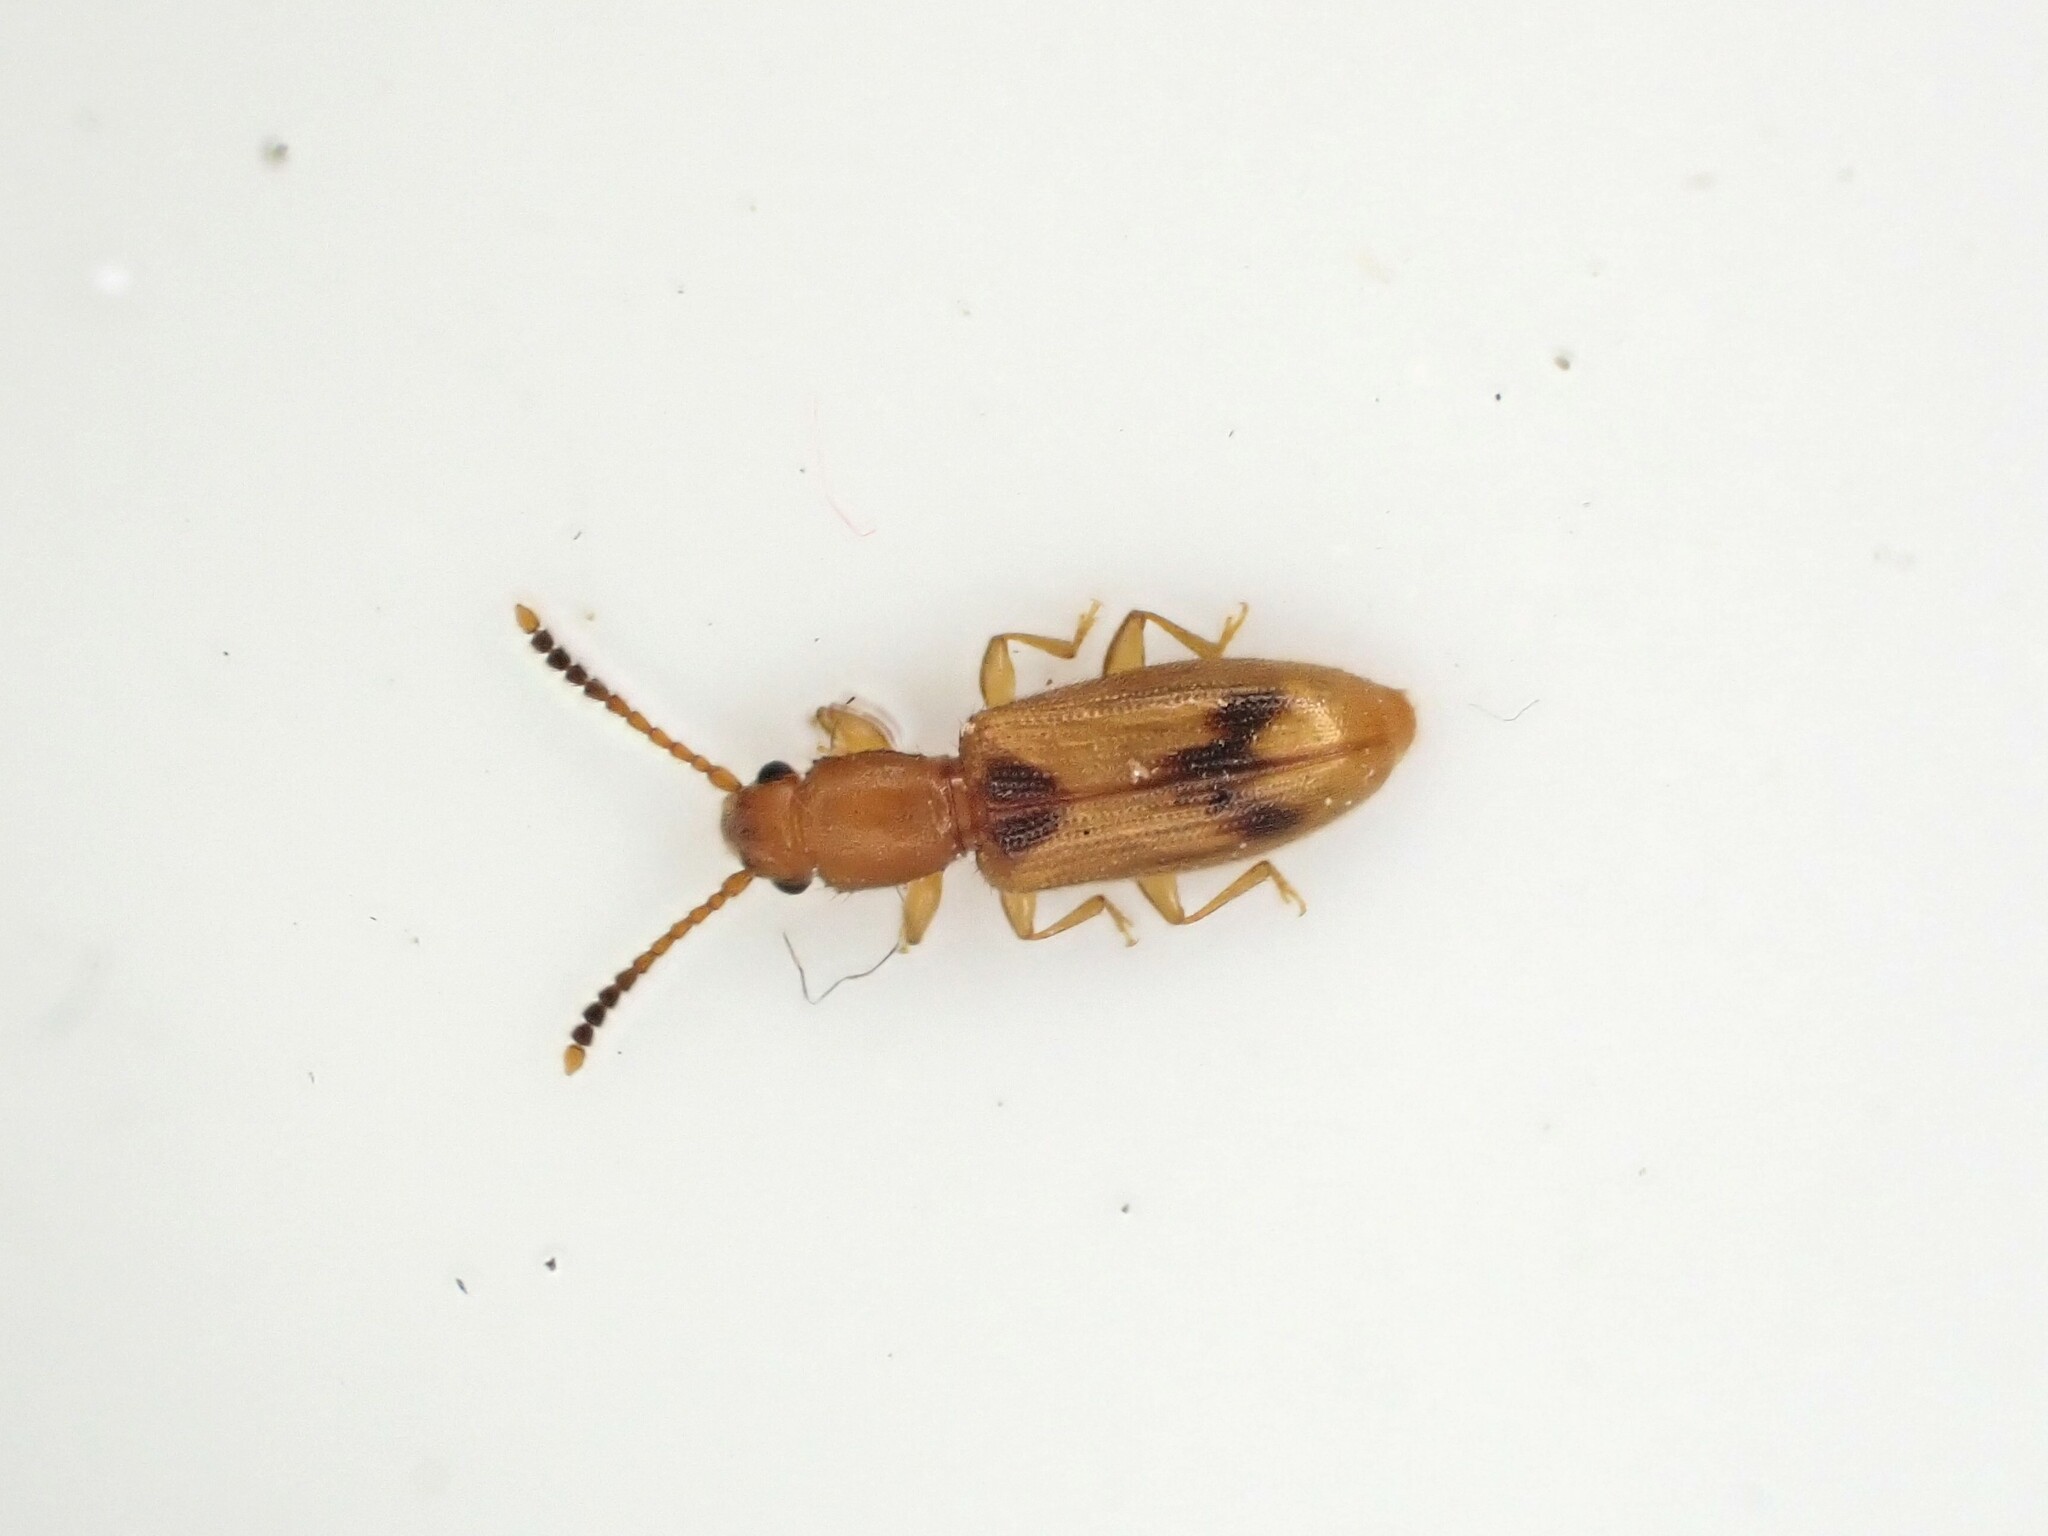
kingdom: Animalia
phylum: Arthropoda
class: Insecta
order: Coleoptera
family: Silvanidae
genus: Cryptamorpha
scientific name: Cryptamorpha desjardinsi
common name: Cryptamorpha
